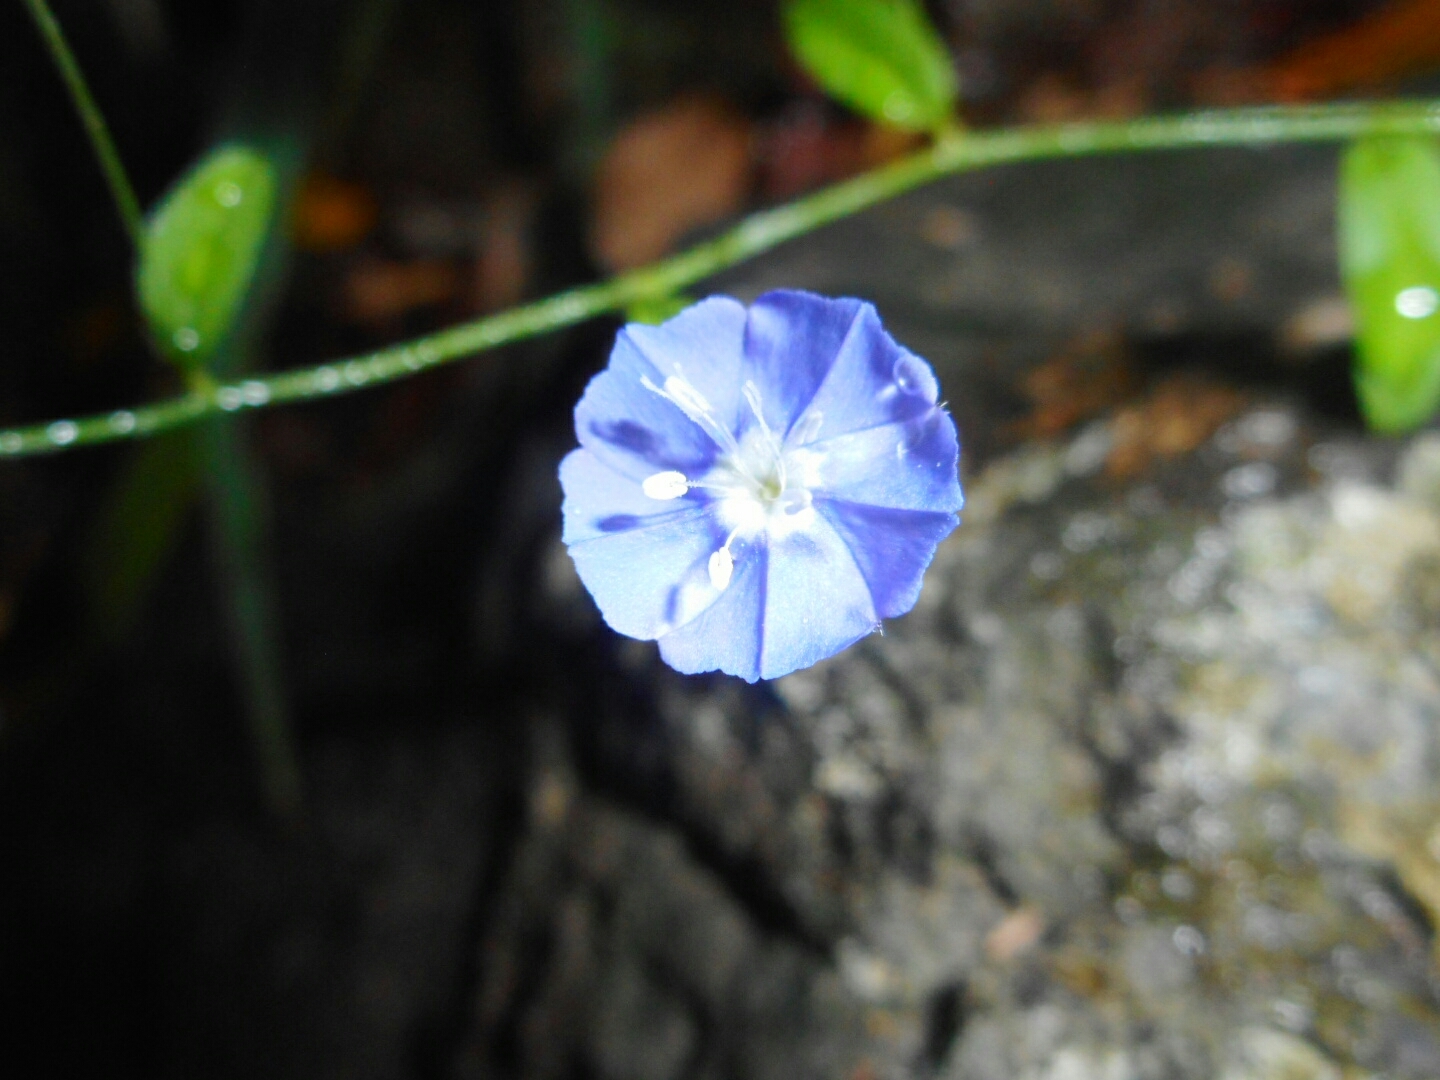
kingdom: Plantae
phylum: Tracheophyta
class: Magnoliopsida
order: Solanales
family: Convolvulaceae
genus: Evolvulus
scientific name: Evolvulus alsinoides
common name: Slender dwarf morning-glory
